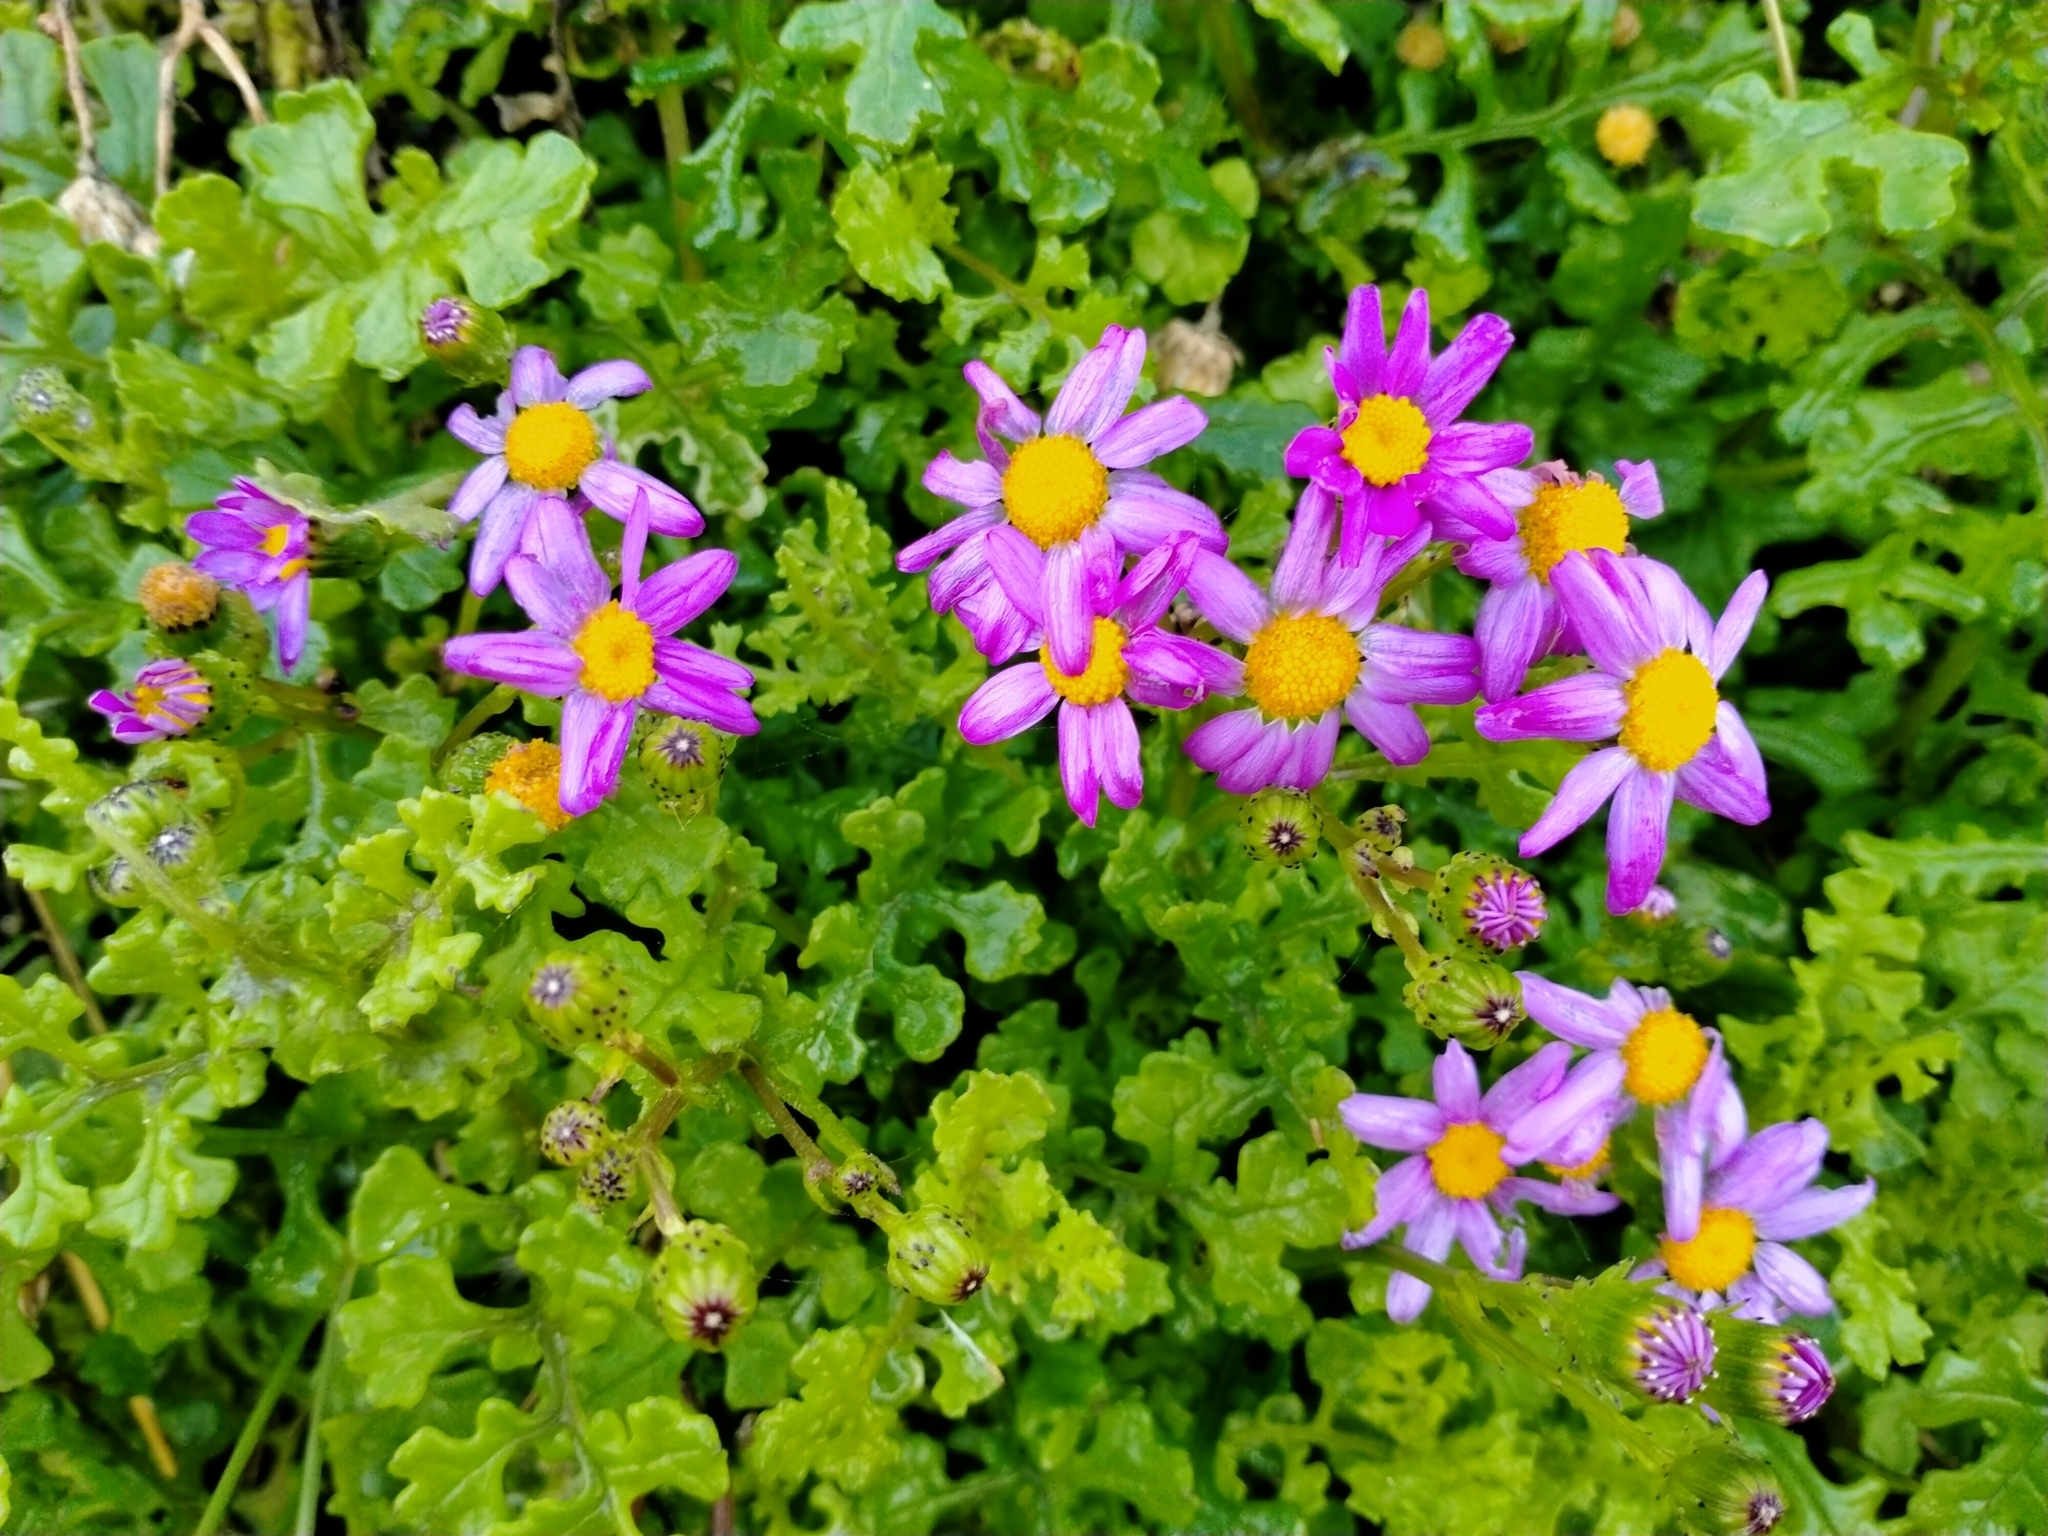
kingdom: Plantae
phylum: Tracheophyta
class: Magnoliopsida
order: Asterales
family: Asteraceae
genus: Senecio
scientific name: Senecio elegans
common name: Purple groundsel
